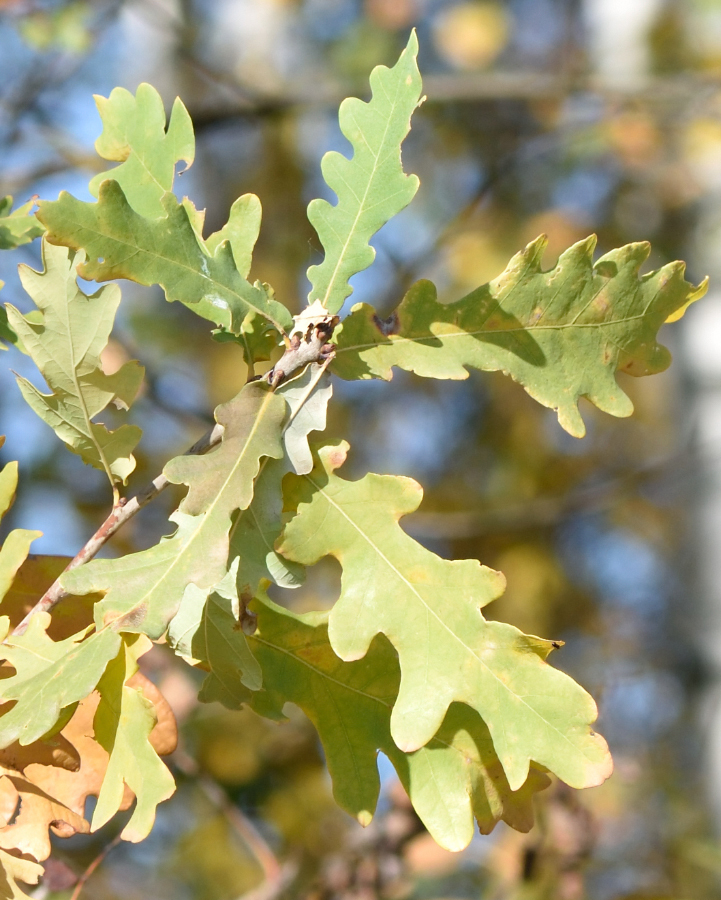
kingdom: Plantae
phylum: Tracheophyta
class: Magnoliopsida
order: Fagales
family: Fagaceae
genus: Quercus
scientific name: Quercus robur
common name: Pedunculate oak
